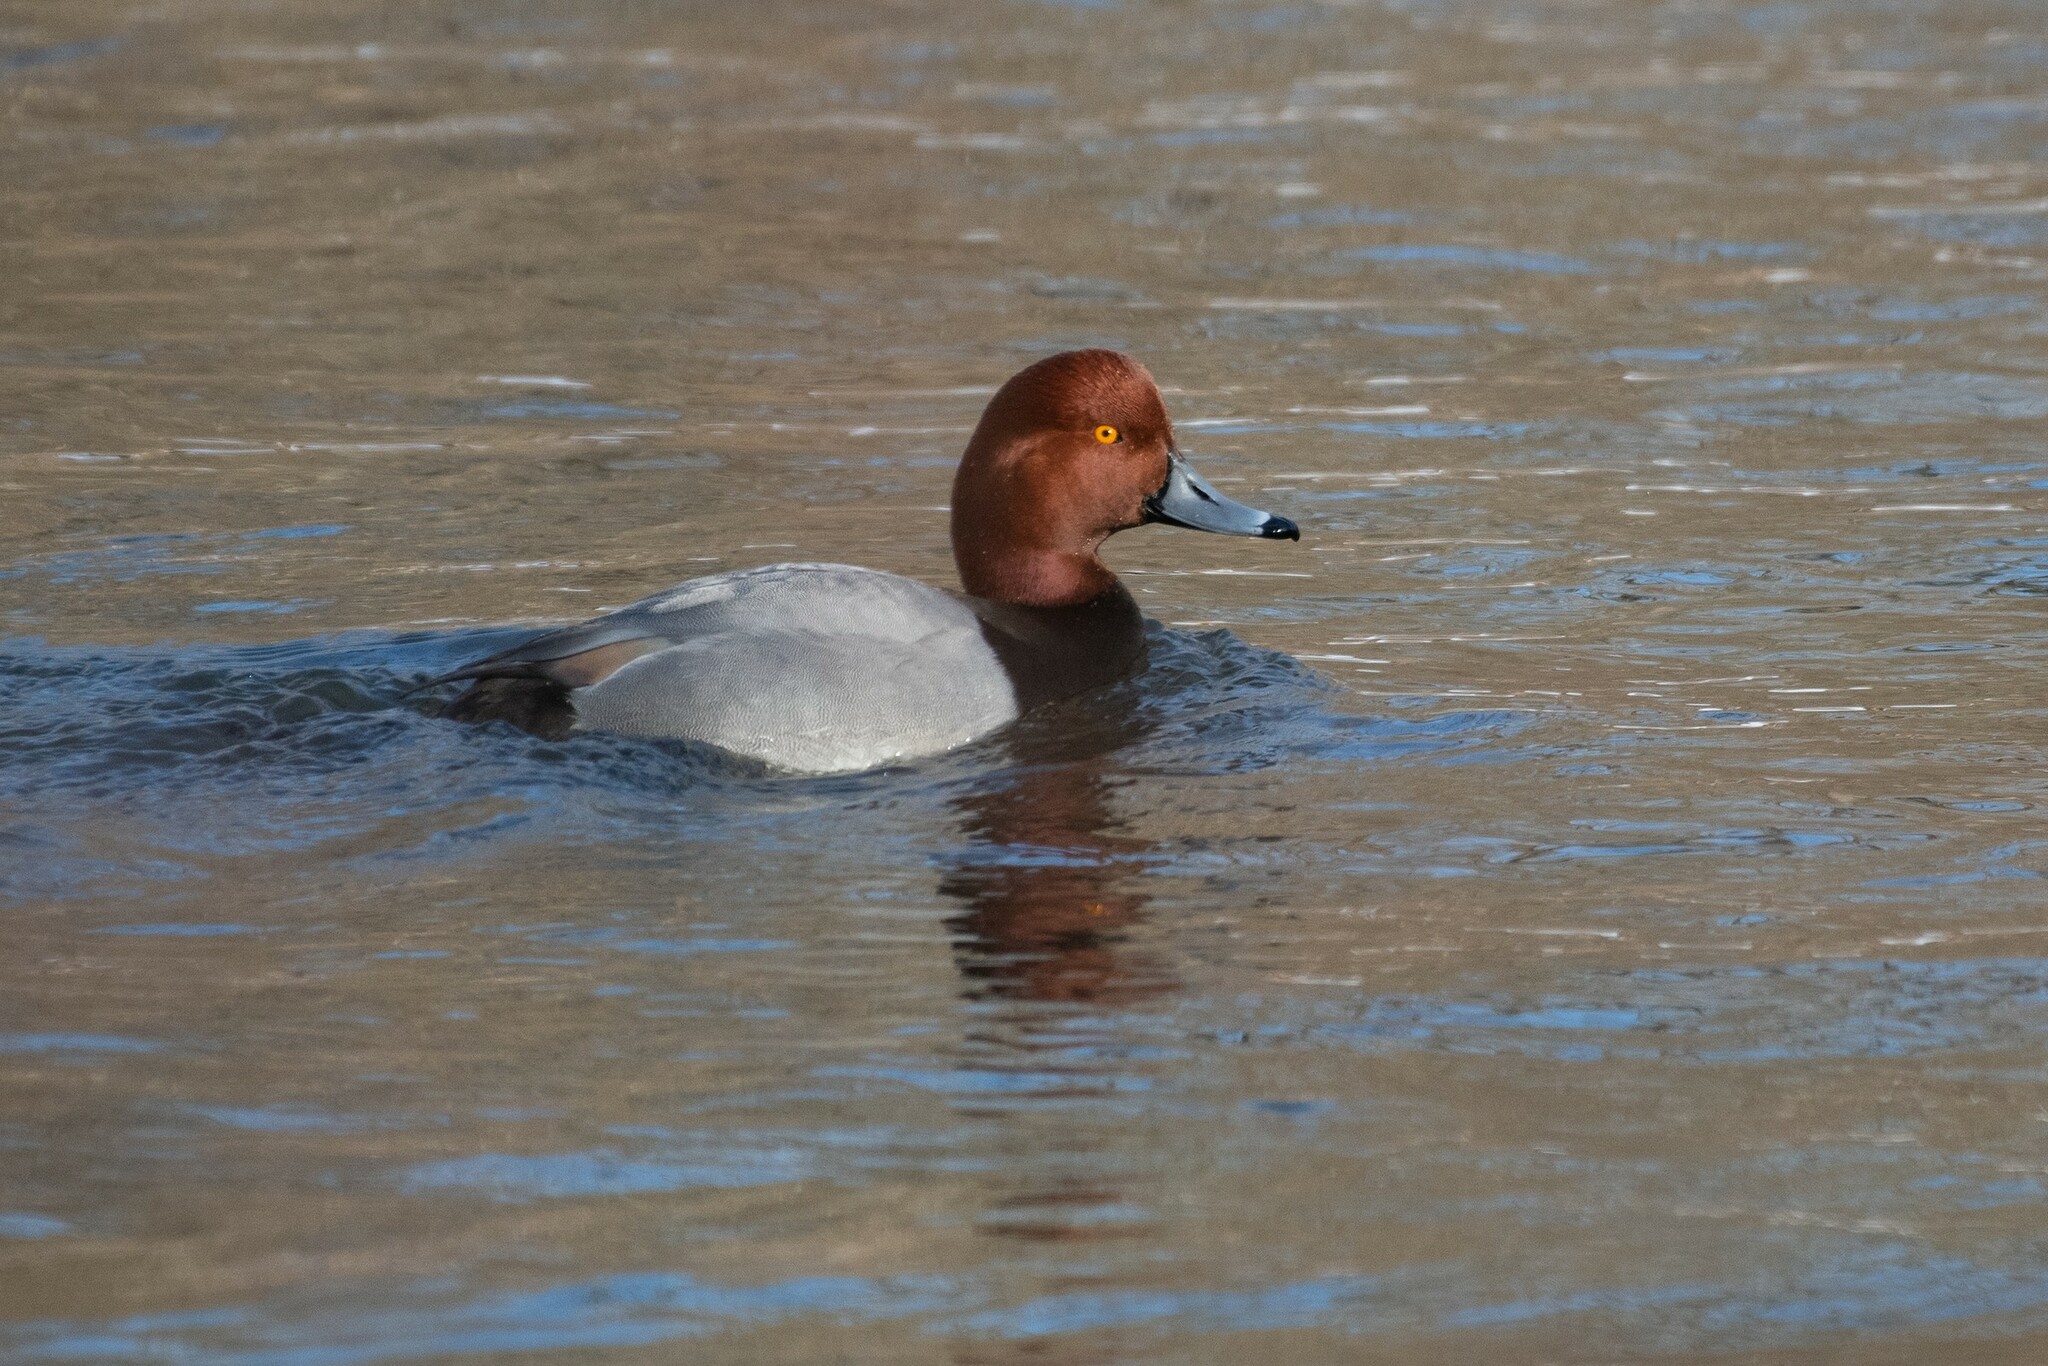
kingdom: Animalia
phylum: Chordata
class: Aves
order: Anseriformes
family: Anatidae
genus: Aythya
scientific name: Aythya americana
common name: Redhead
